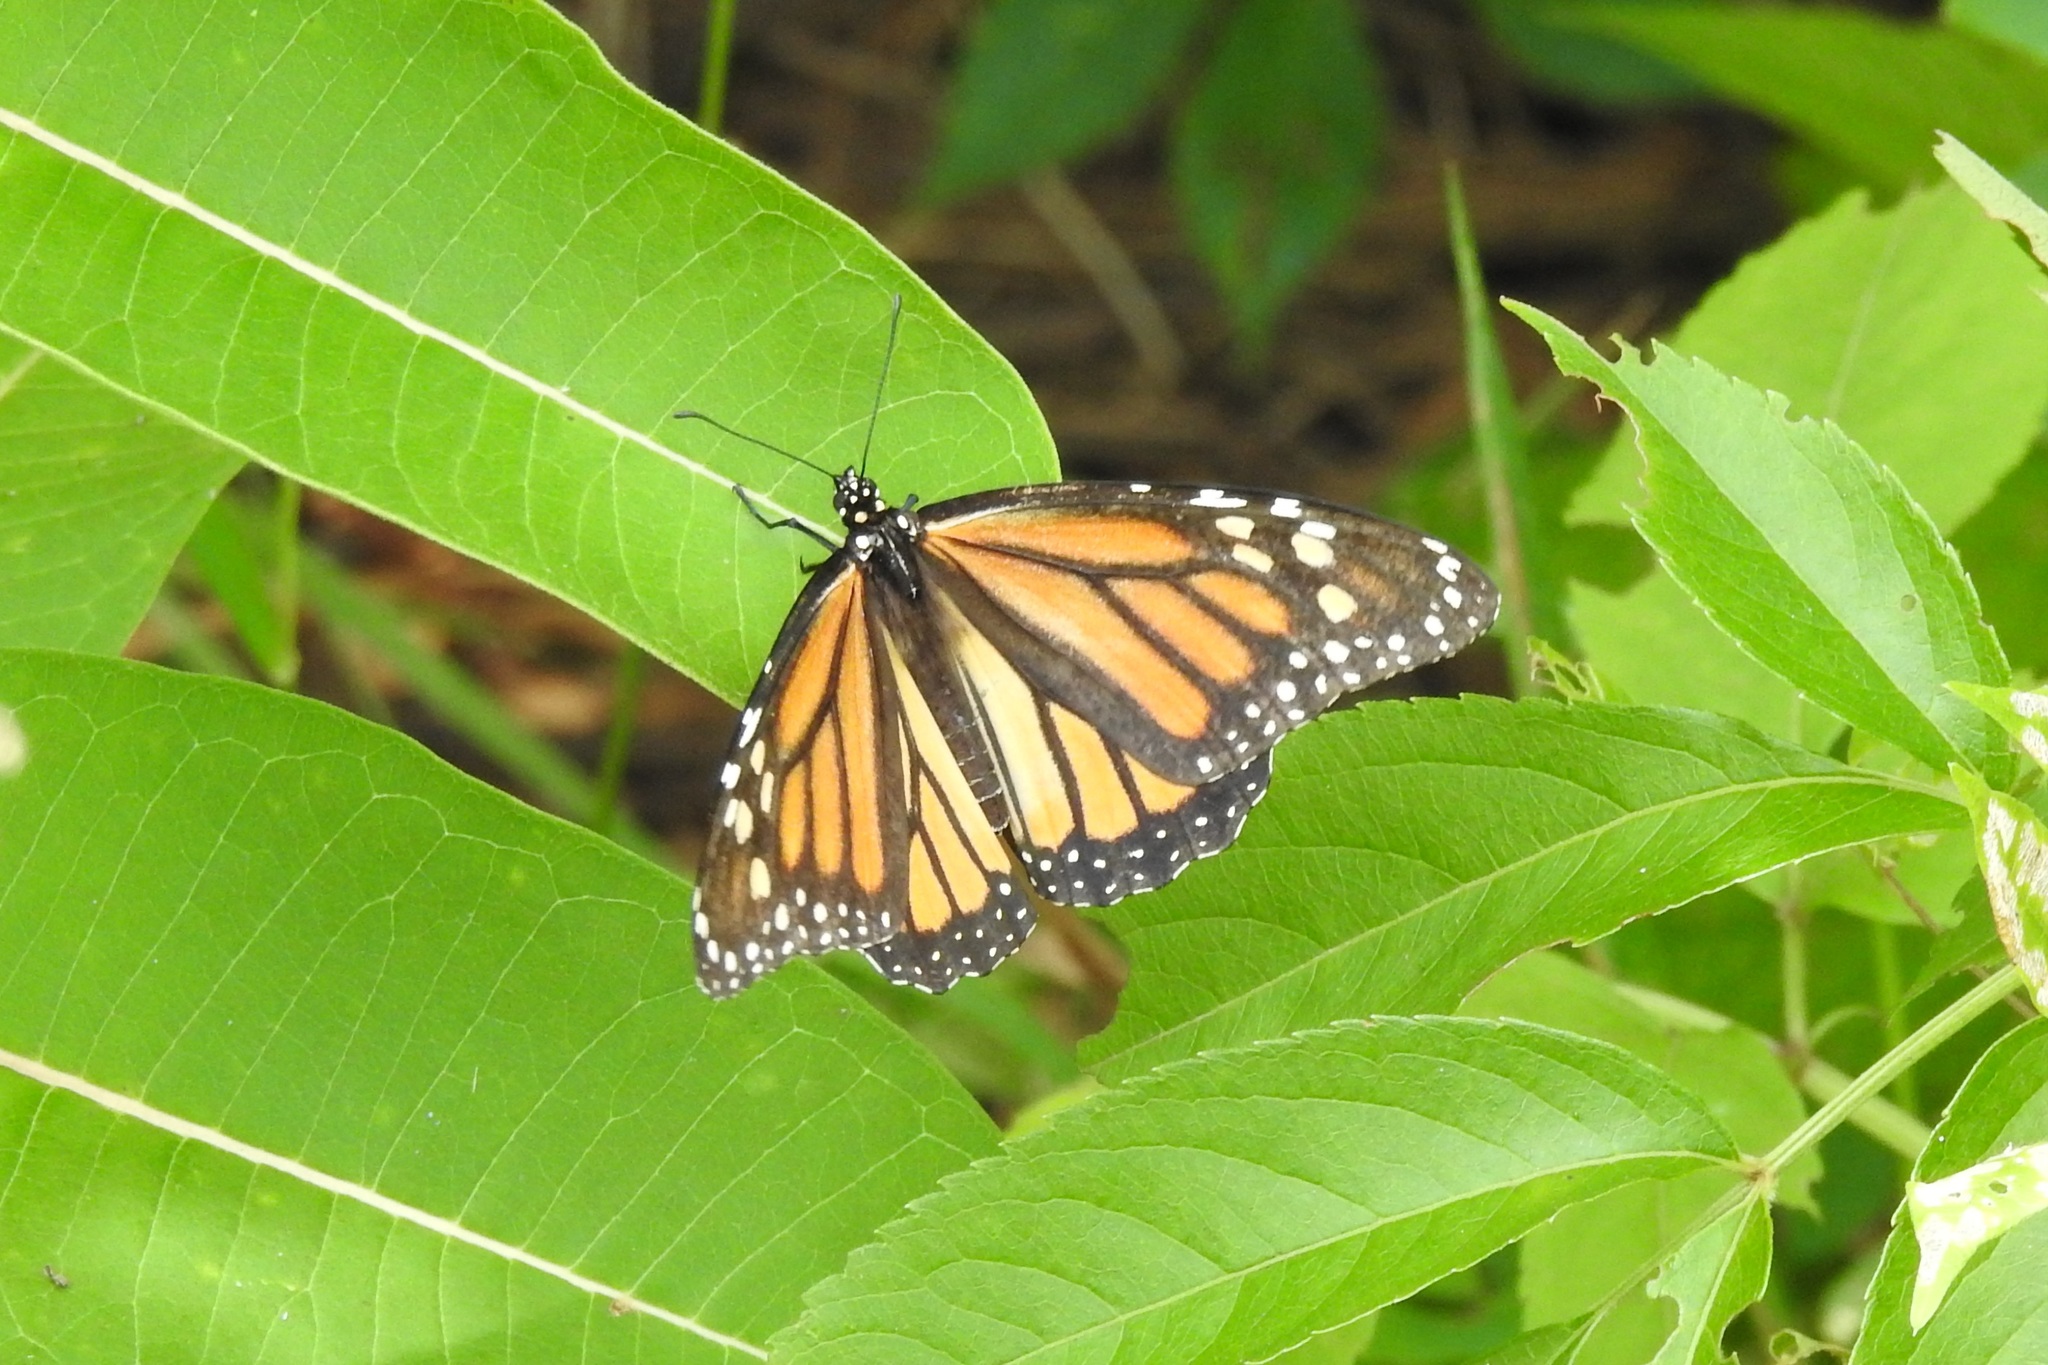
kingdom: Animalia
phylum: Arthropoda
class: Insecta
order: Lepidoptera
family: Nymphalidae
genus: Danaus
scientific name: Danaus plexippus
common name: Monarch
